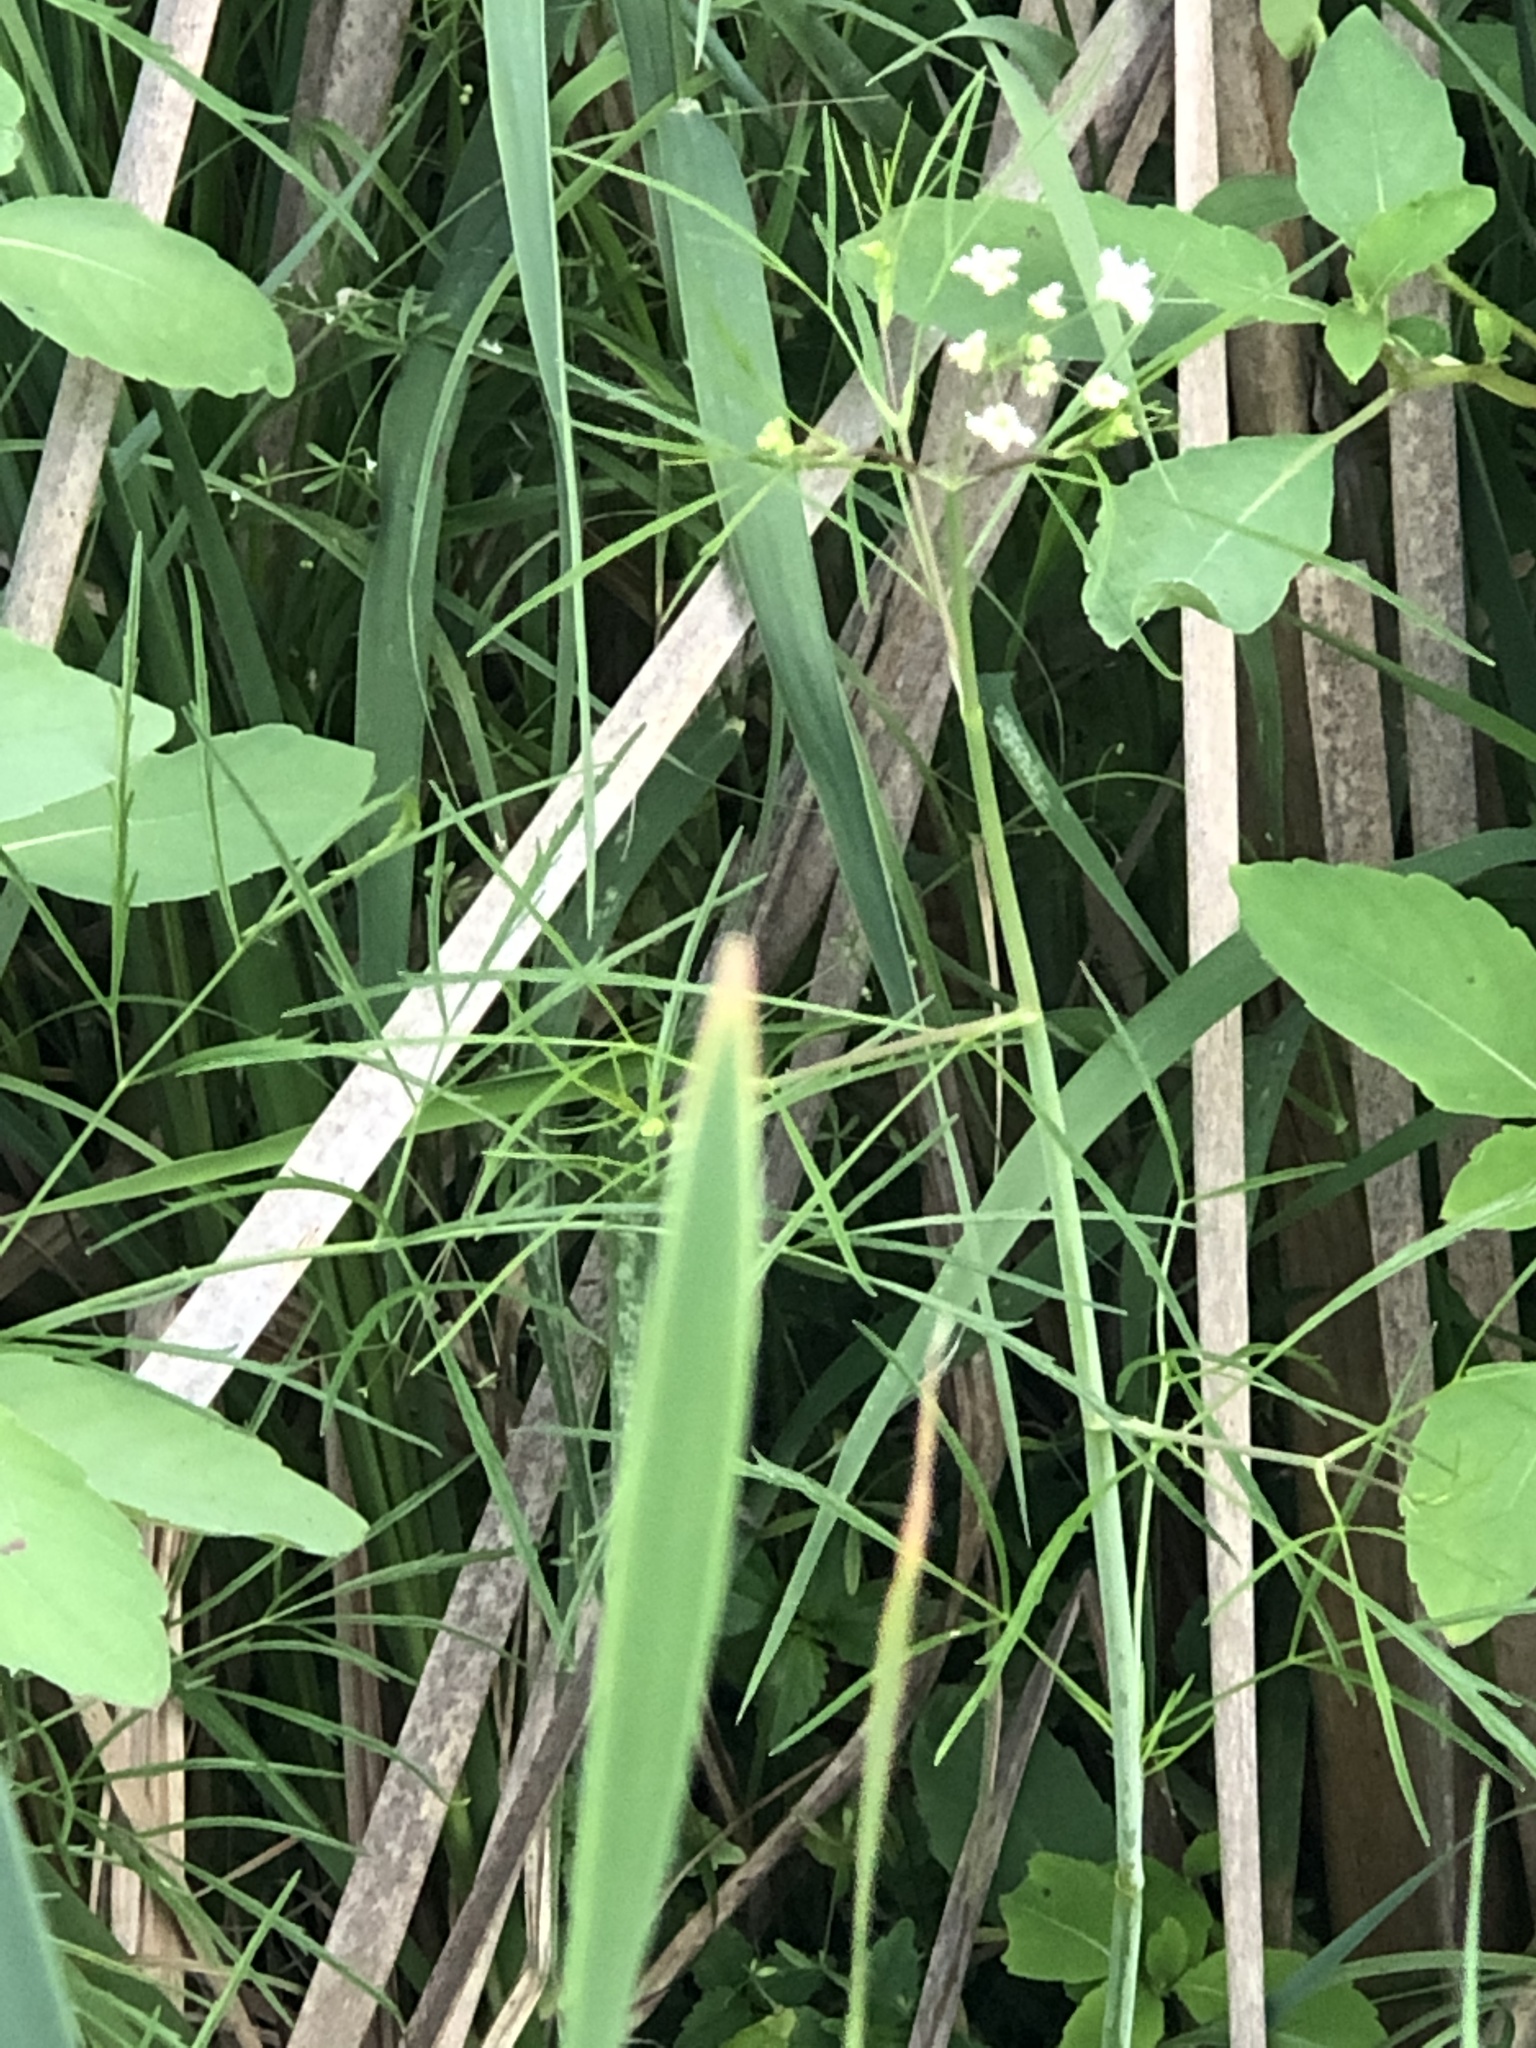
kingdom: Plantae
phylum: Tracheophyta
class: Magnoliopsida
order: Apiales
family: Apiaceae
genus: Cicuta
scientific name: Cicuta bulbifera
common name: Bulb-bearing water-hemlock
